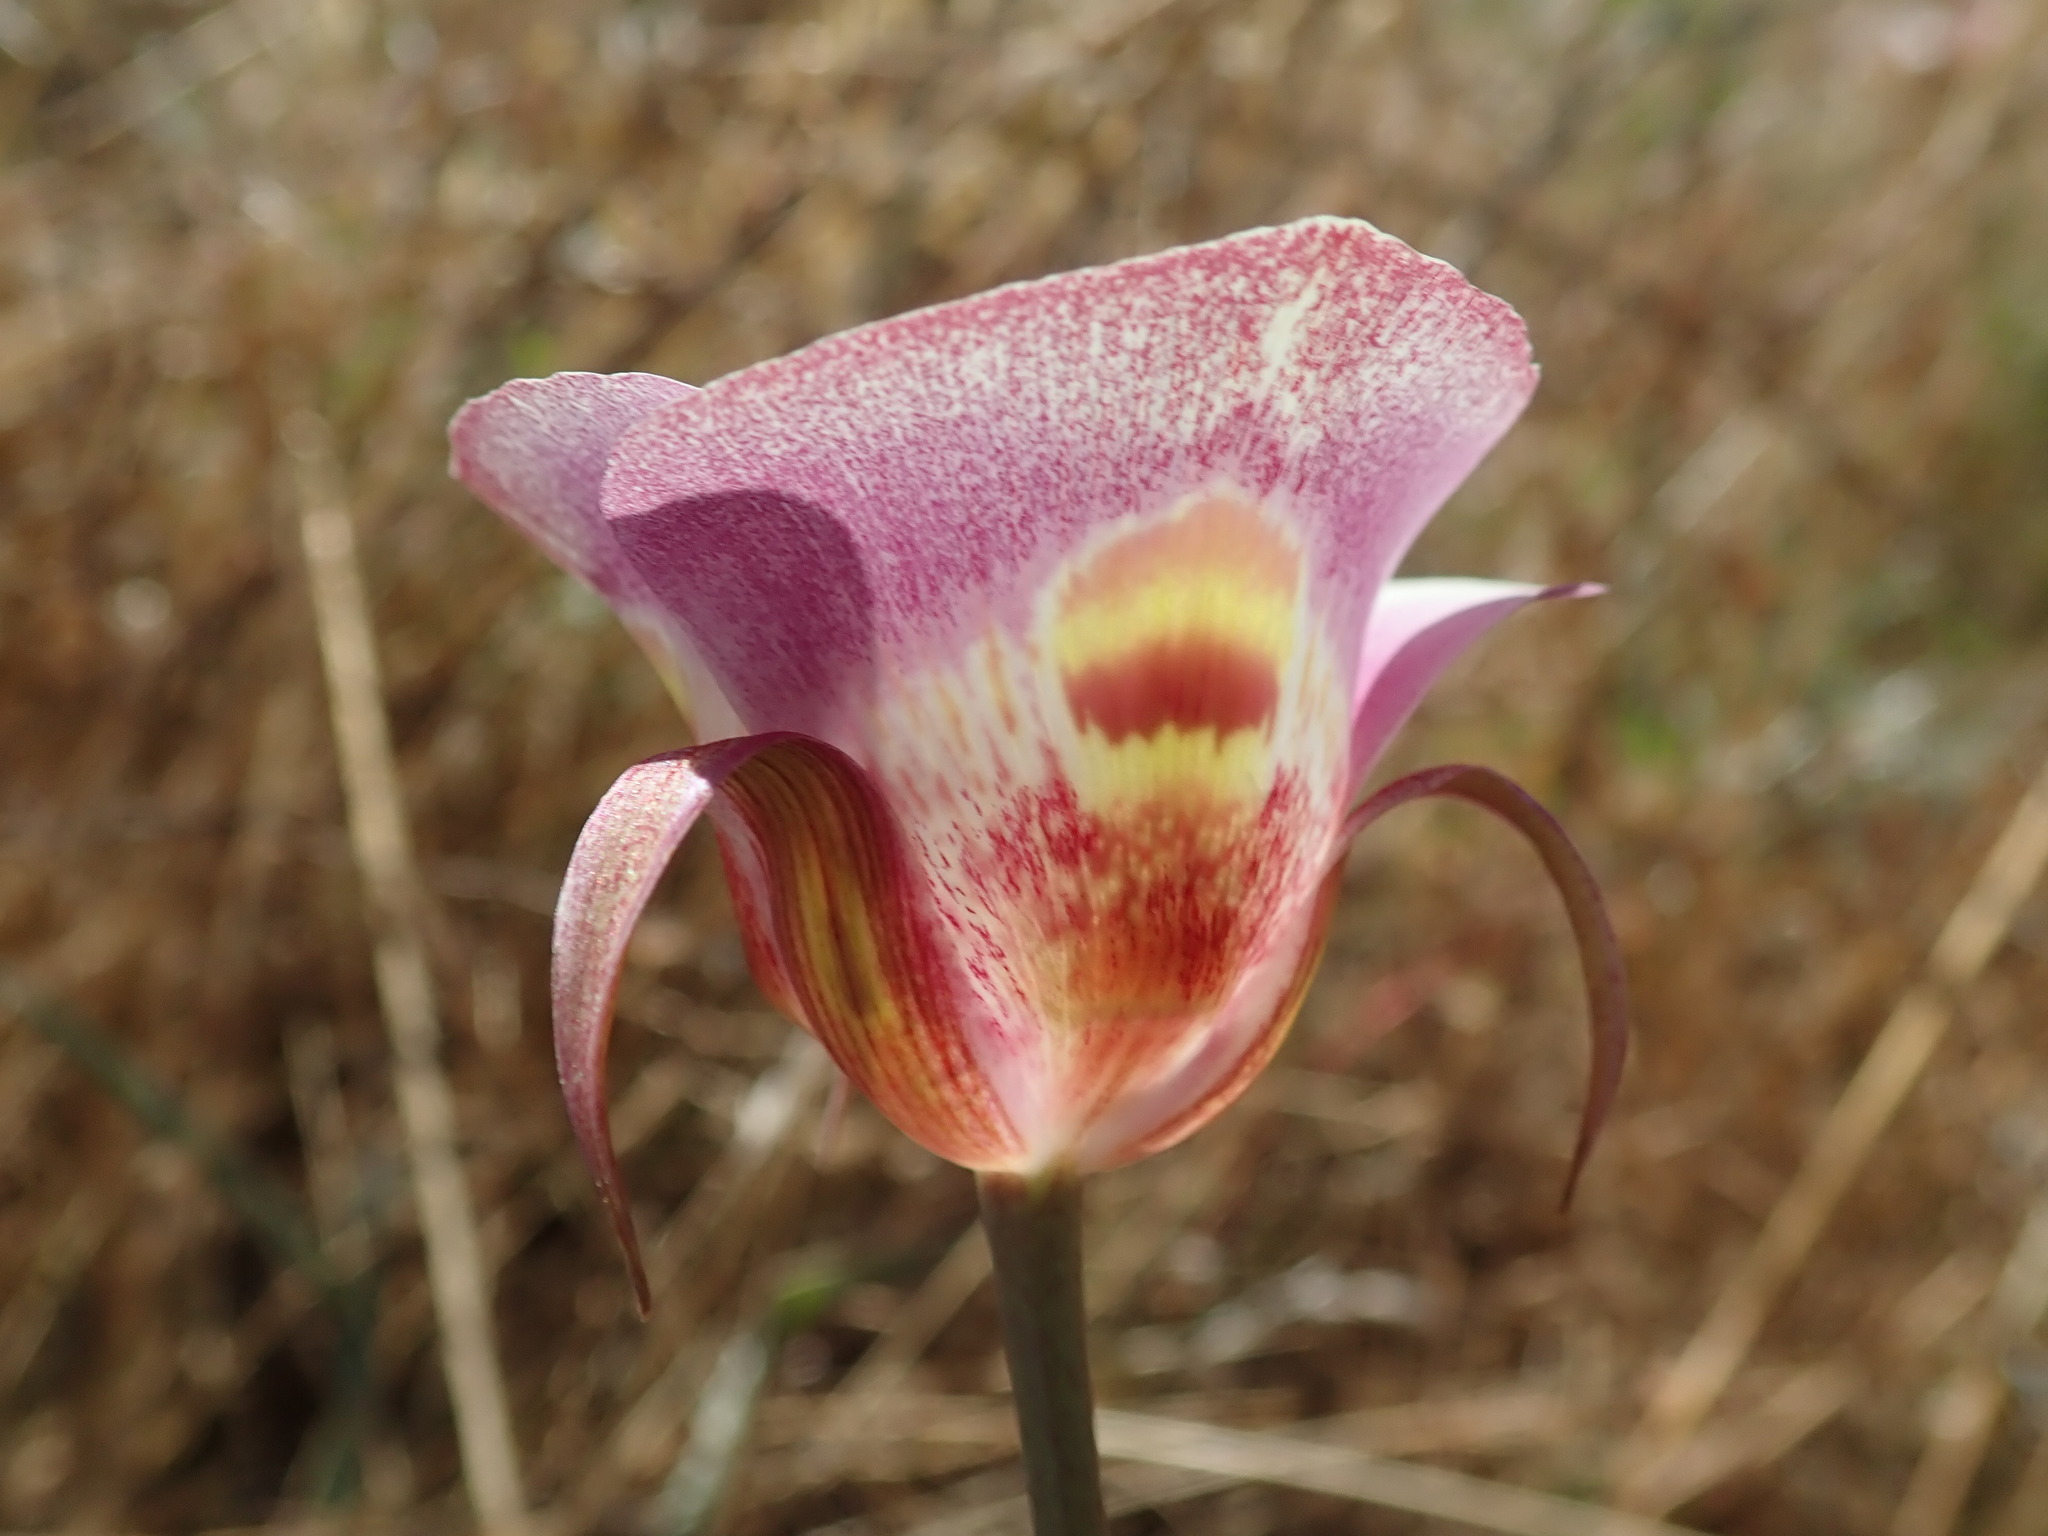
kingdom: Plantae
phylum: Tracheophyta
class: Liliopsida
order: Liliales
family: Liliaceae
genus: Calochortus
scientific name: Calochortus argillosus
